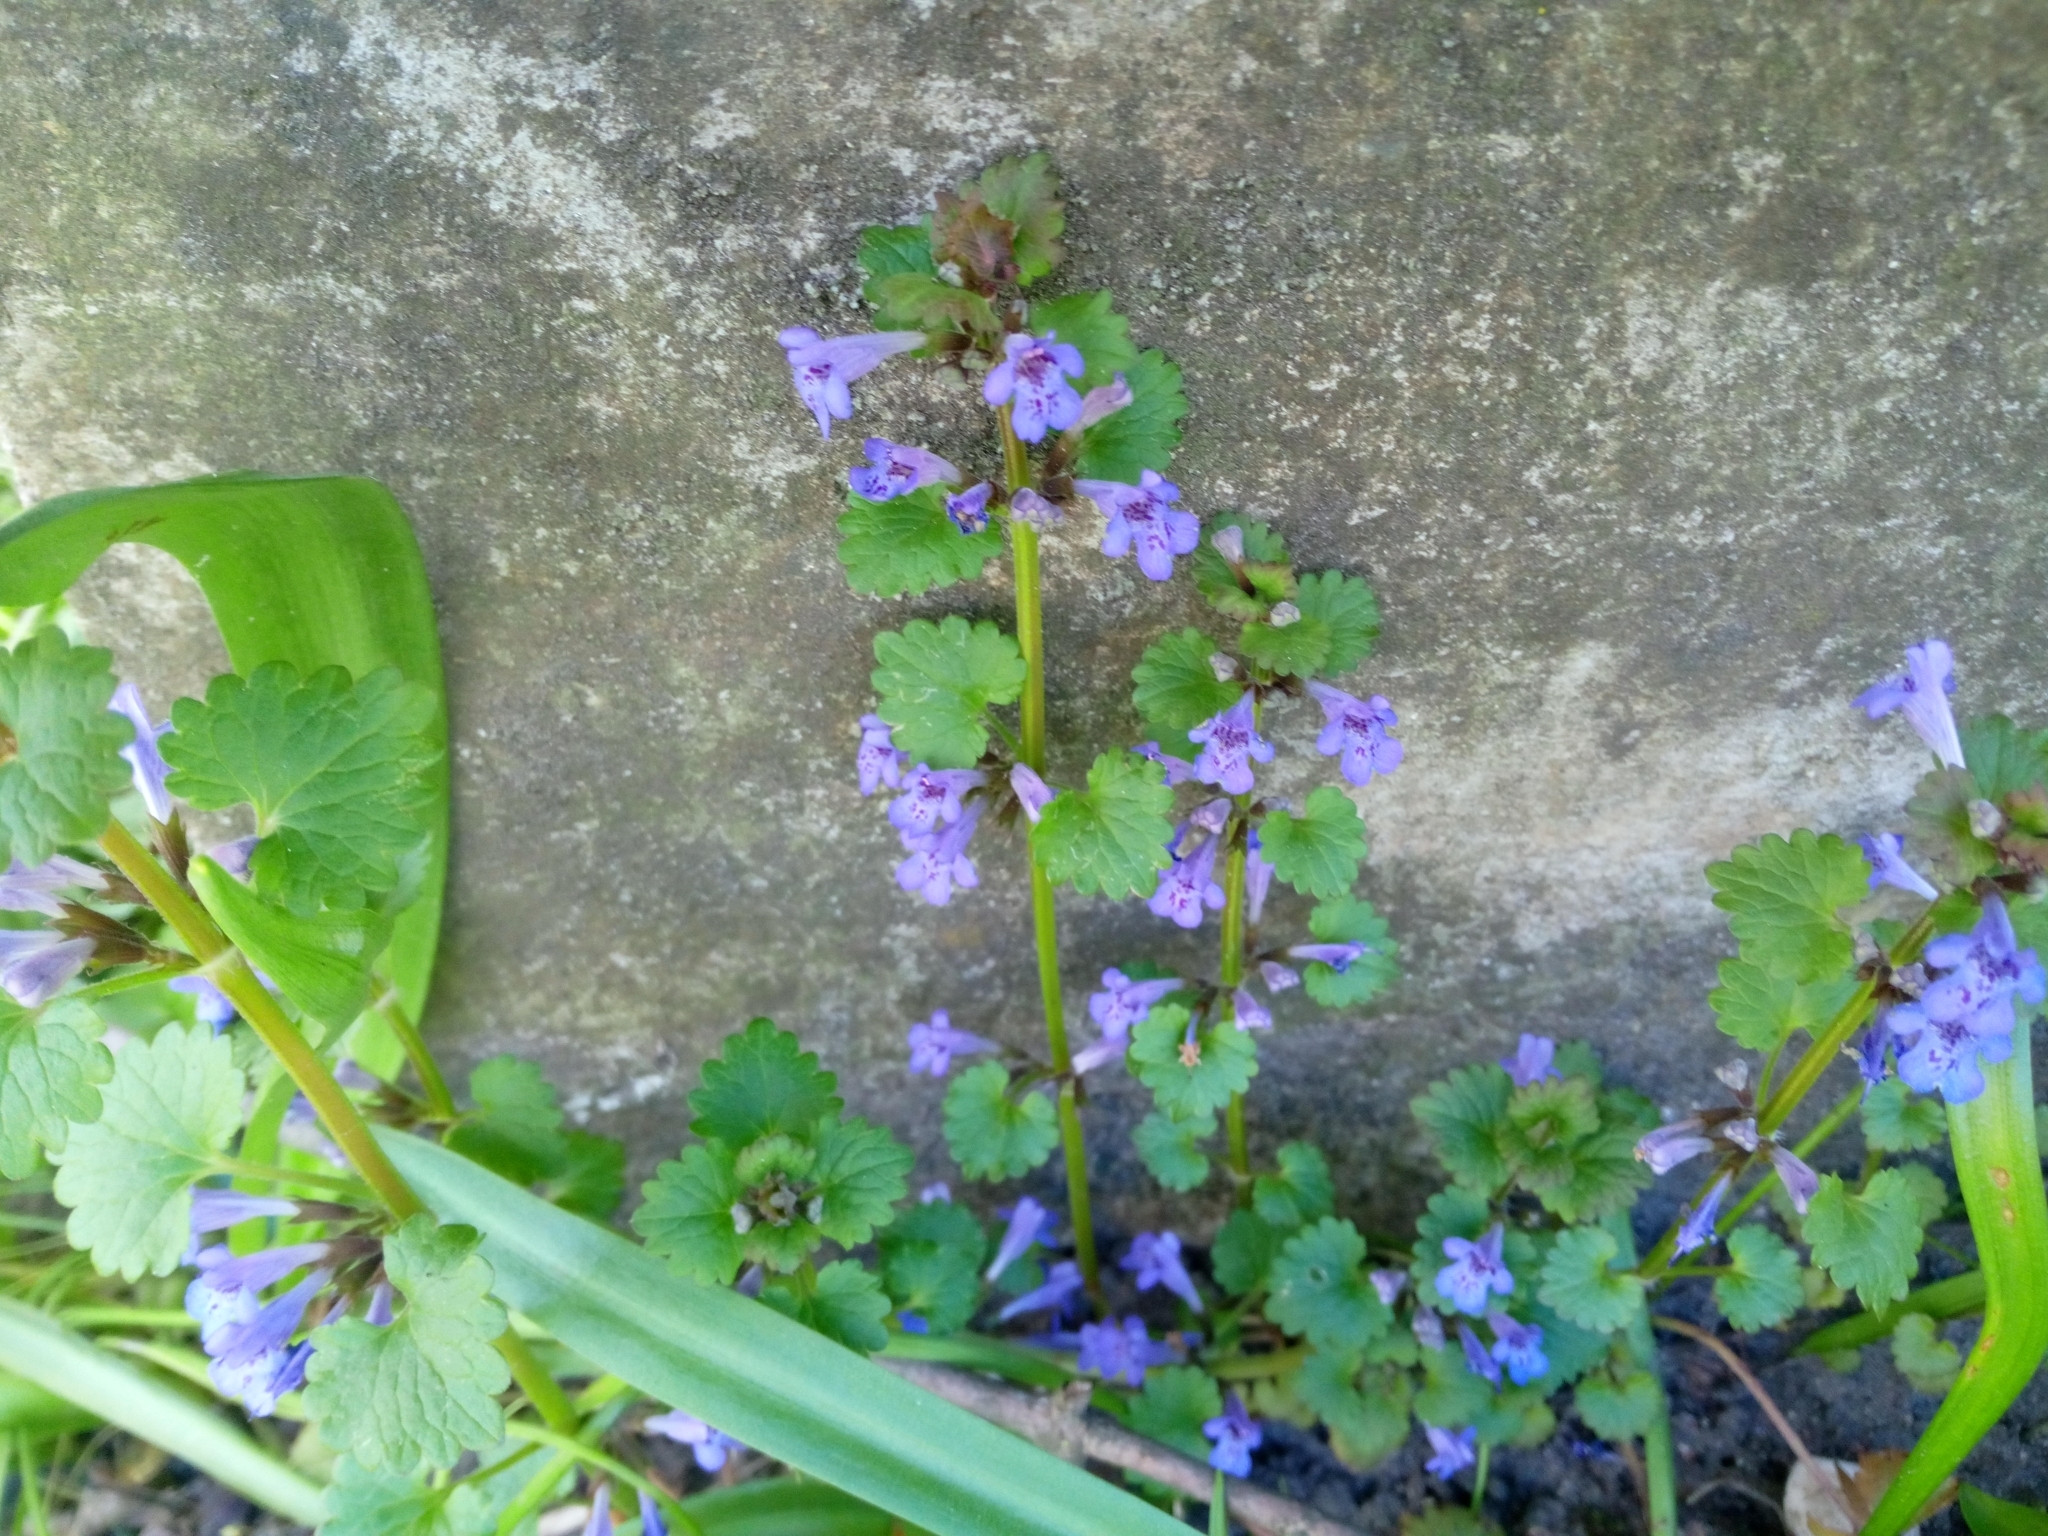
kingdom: Plantae
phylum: Tracheophyta
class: Magnoliopsida
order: Lamiales
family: Lamiaceae
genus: Glechoma
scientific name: Glechoma hederacea
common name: Ground ivy
